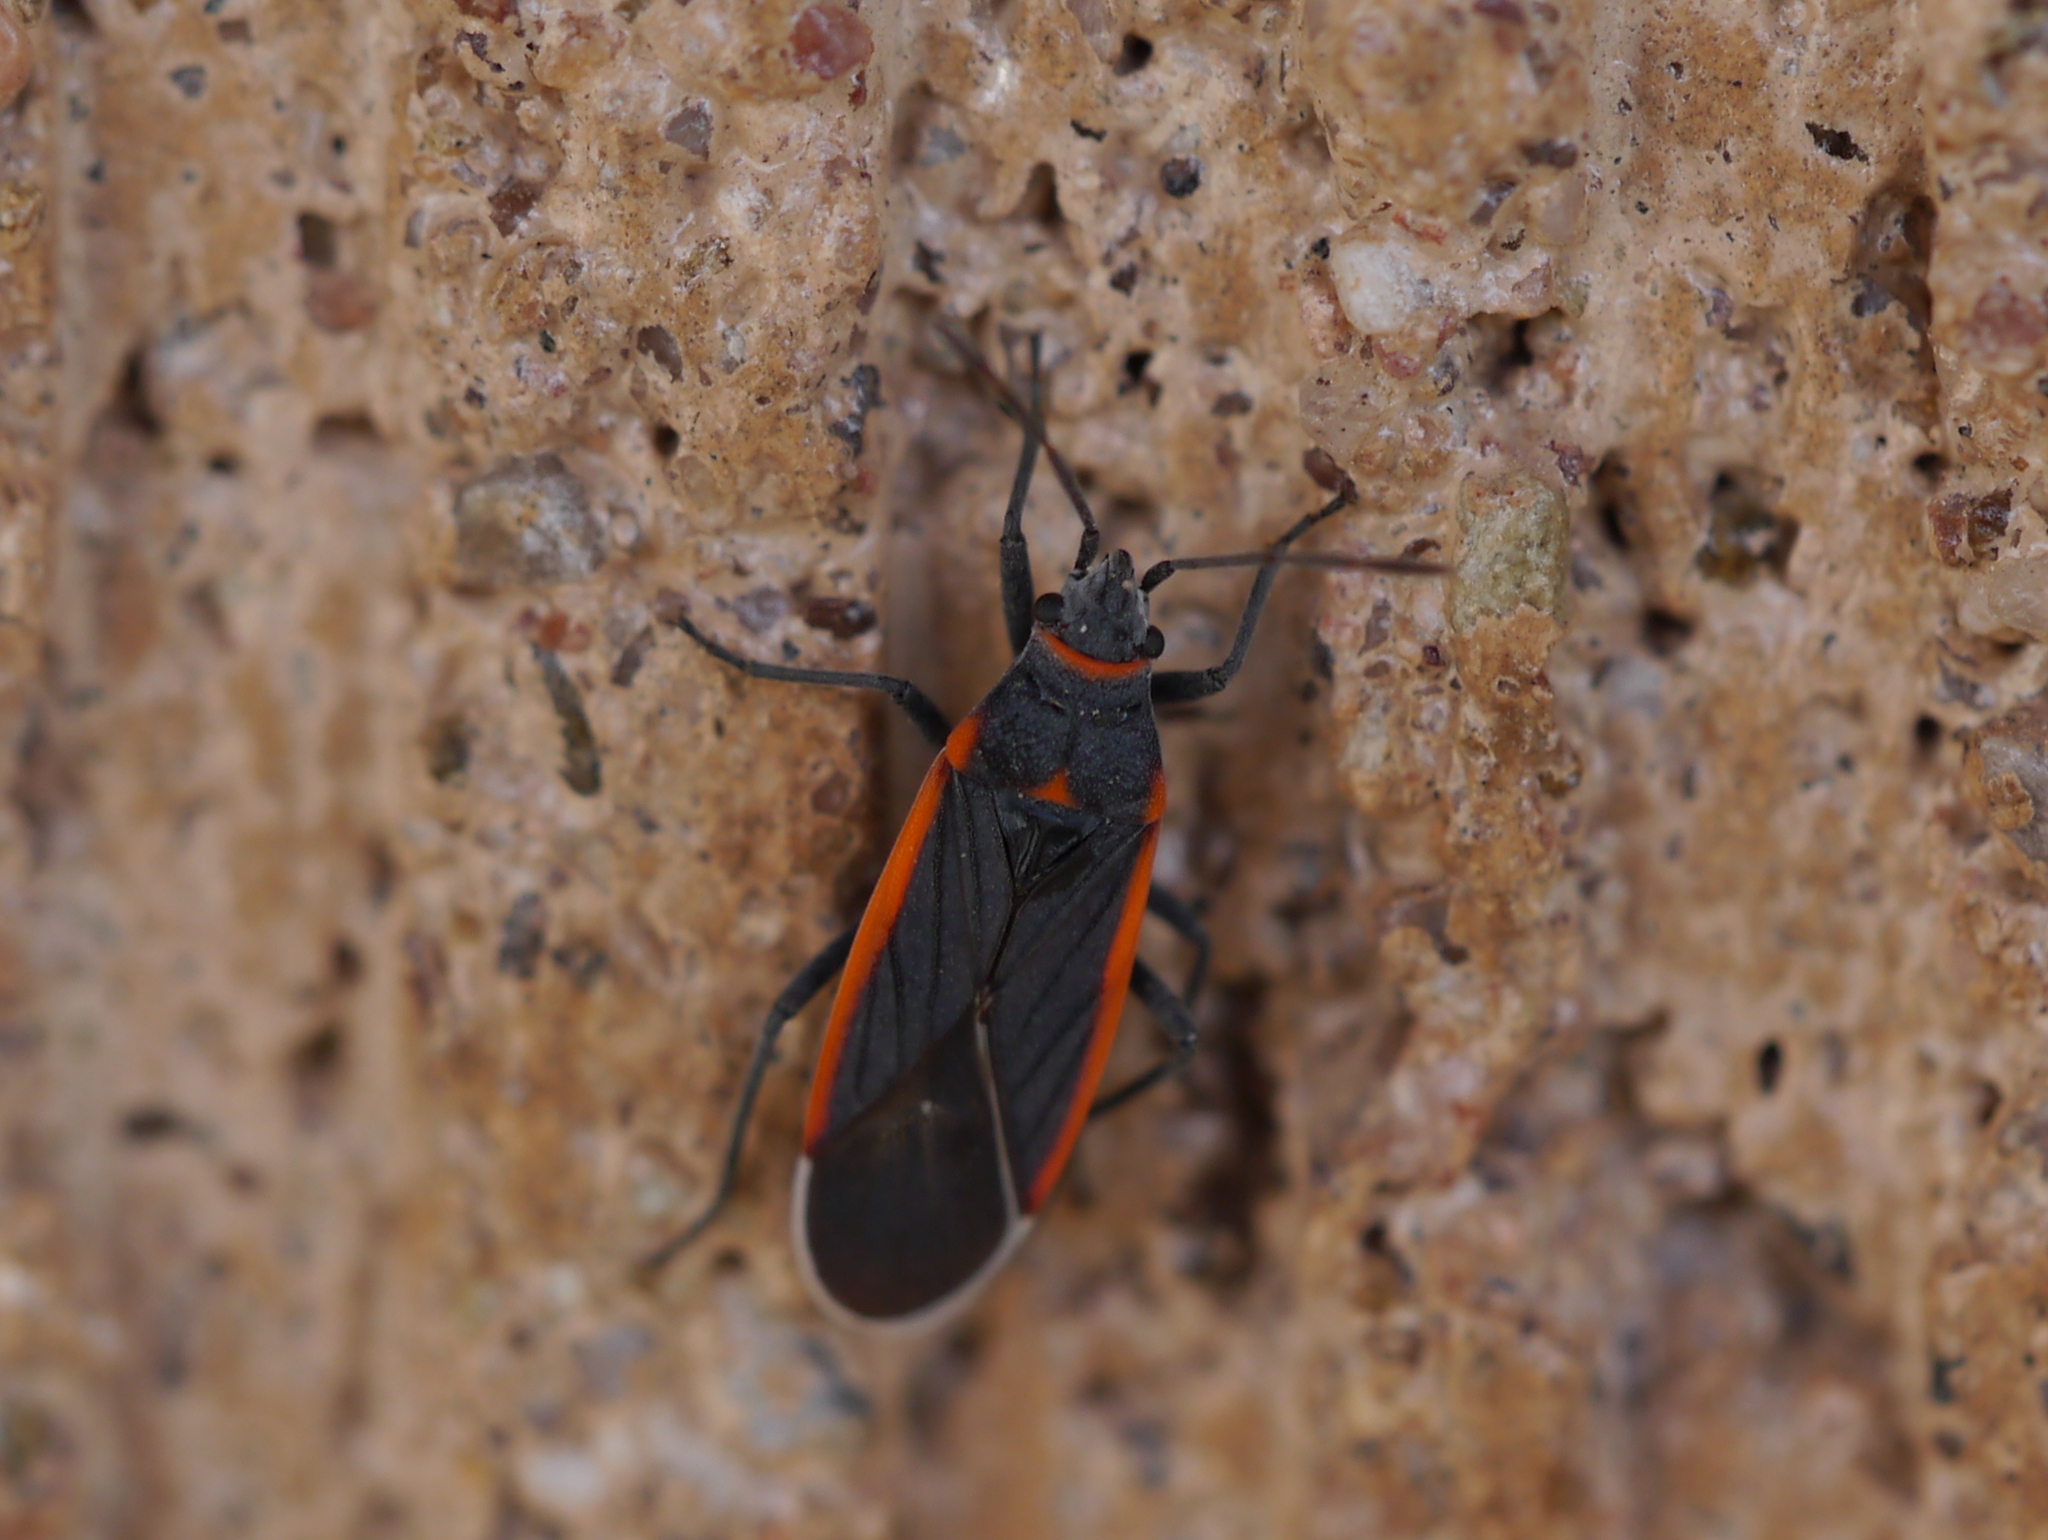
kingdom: Animalia
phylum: Arthropoda
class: Insecta
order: Hemiptera
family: Lygaeidae
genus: Melacoryphus
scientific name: Melacoryphus lateralis
